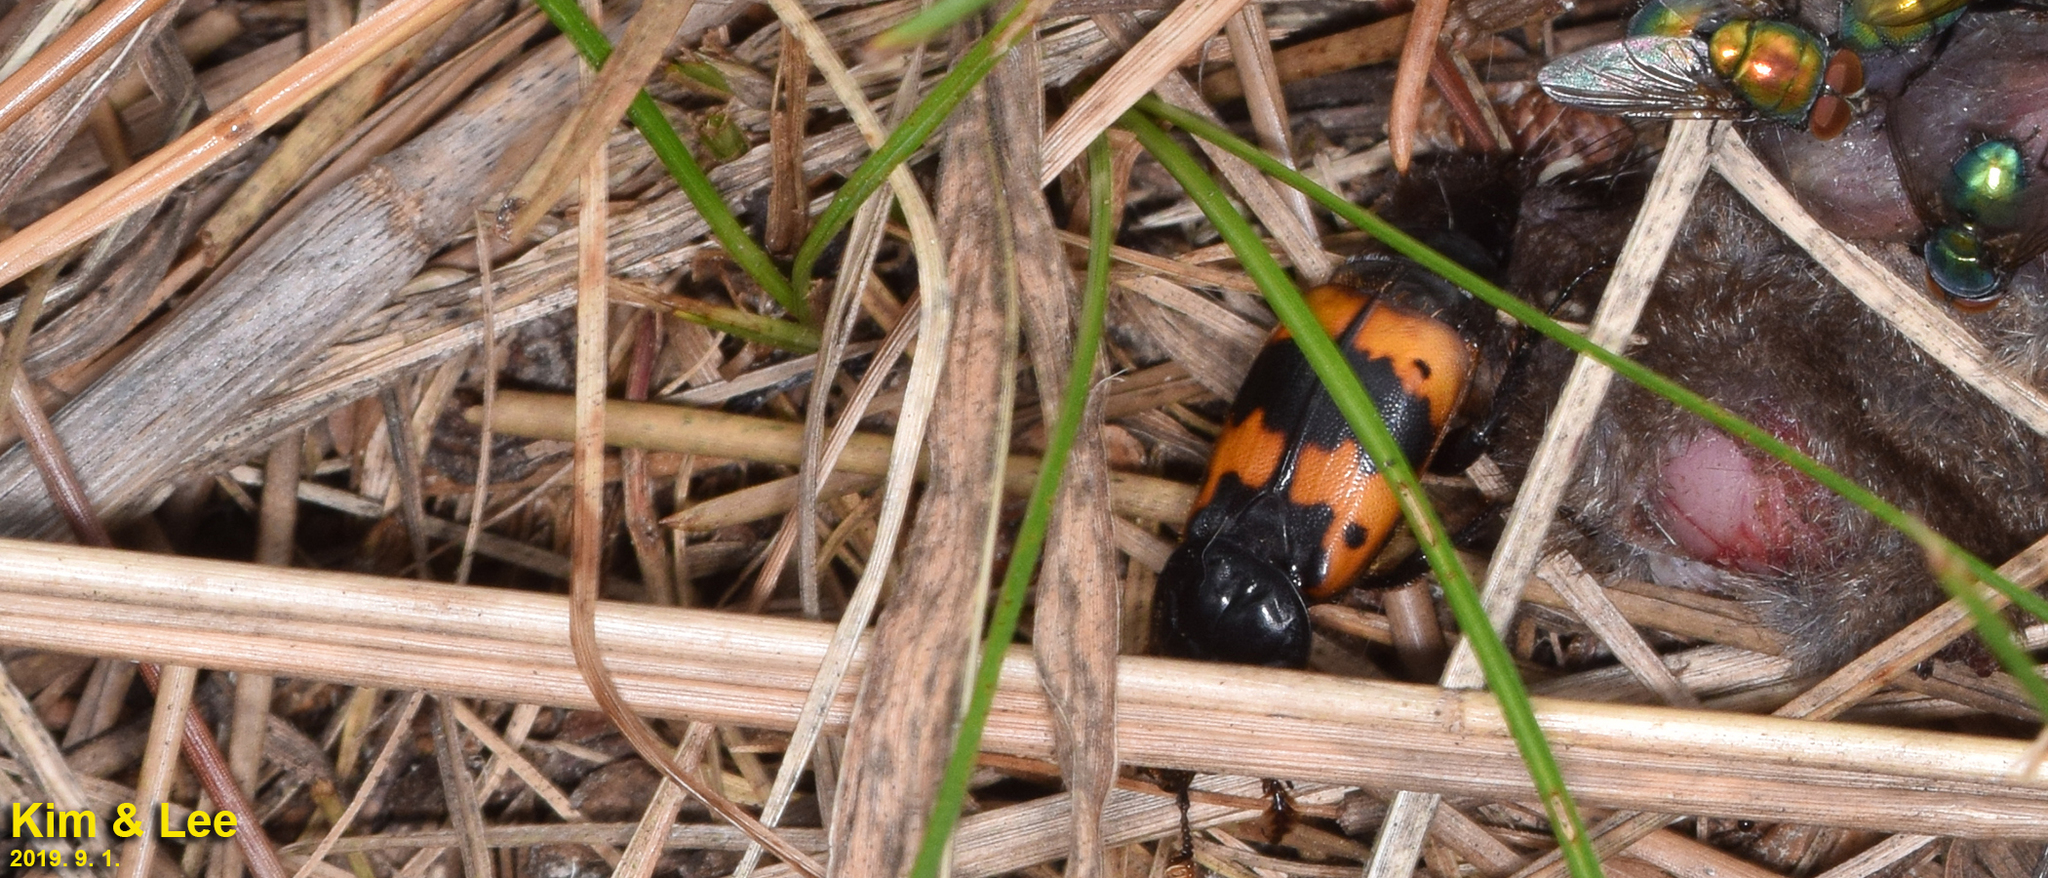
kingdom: Animalia
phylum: Arthropoda
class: Insecta
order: Coleoptera
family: Staphylinidae
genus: Nicrophorus
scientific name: Nicrophorus quadripunctatus
